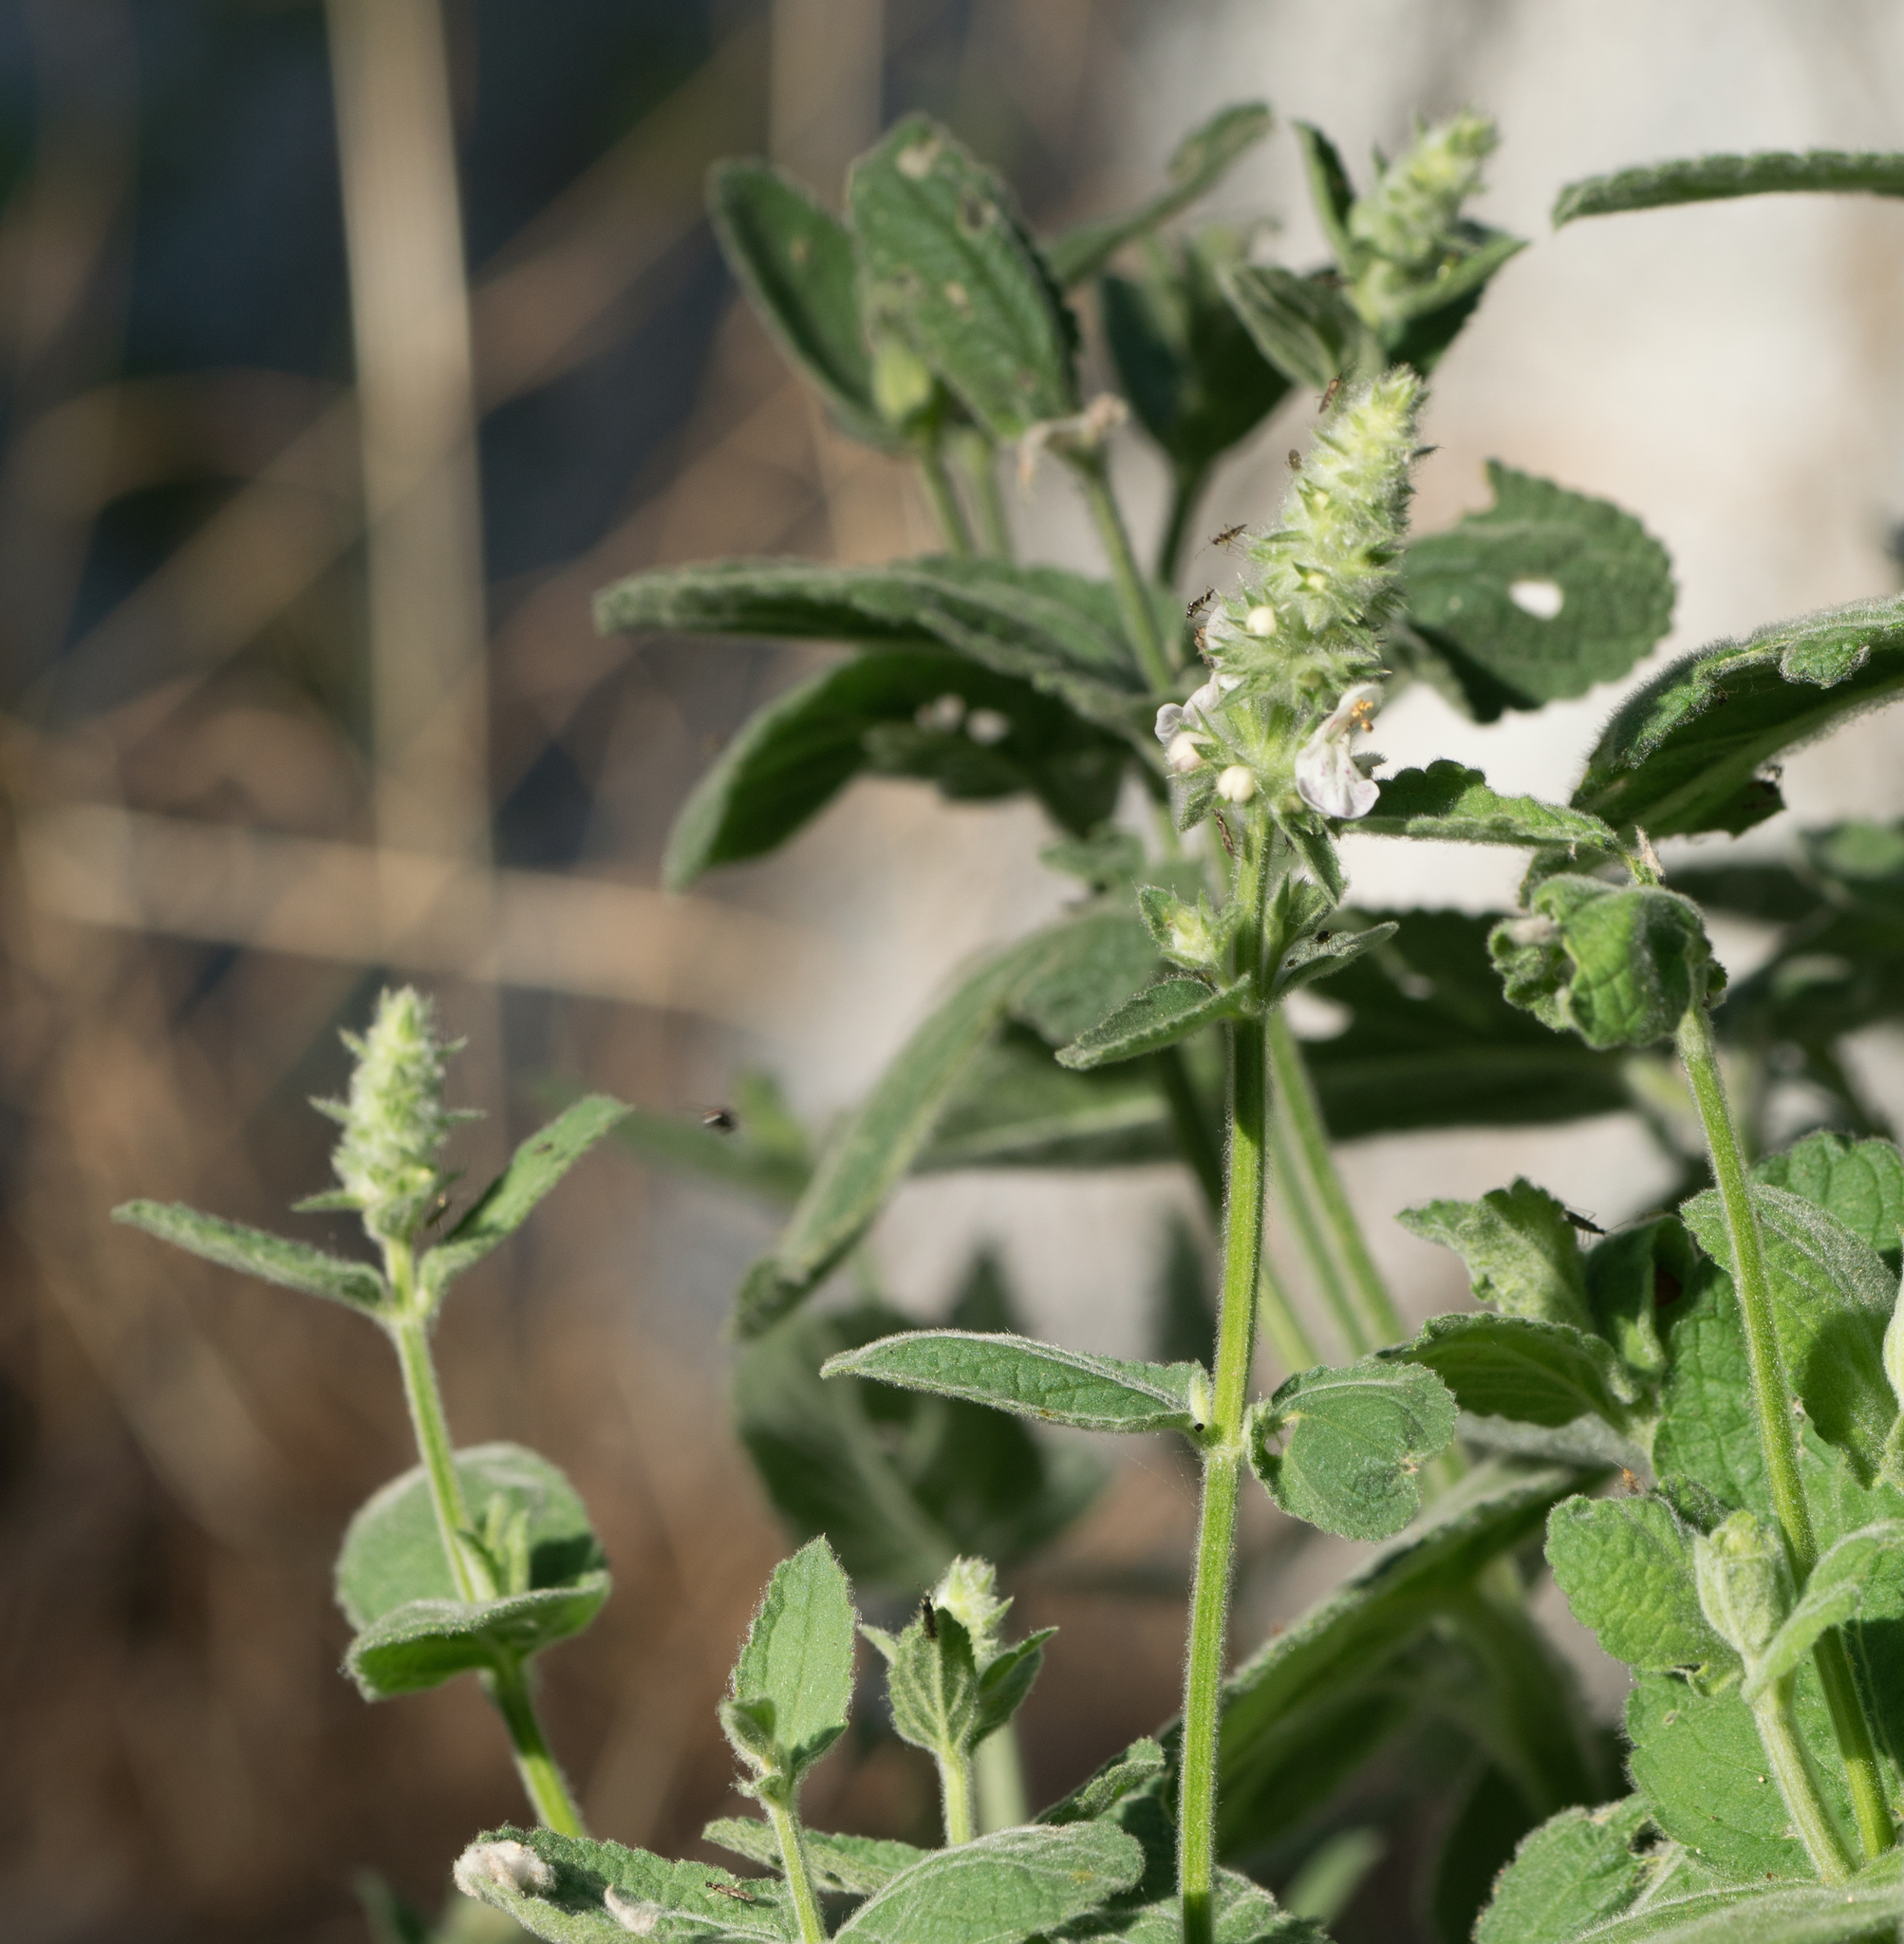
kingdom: Plantae
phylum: Tracheophyta
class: Magnoliopsida
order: Lamiales
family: Lamiaceae
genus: Stachys
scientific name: Stachys albens
